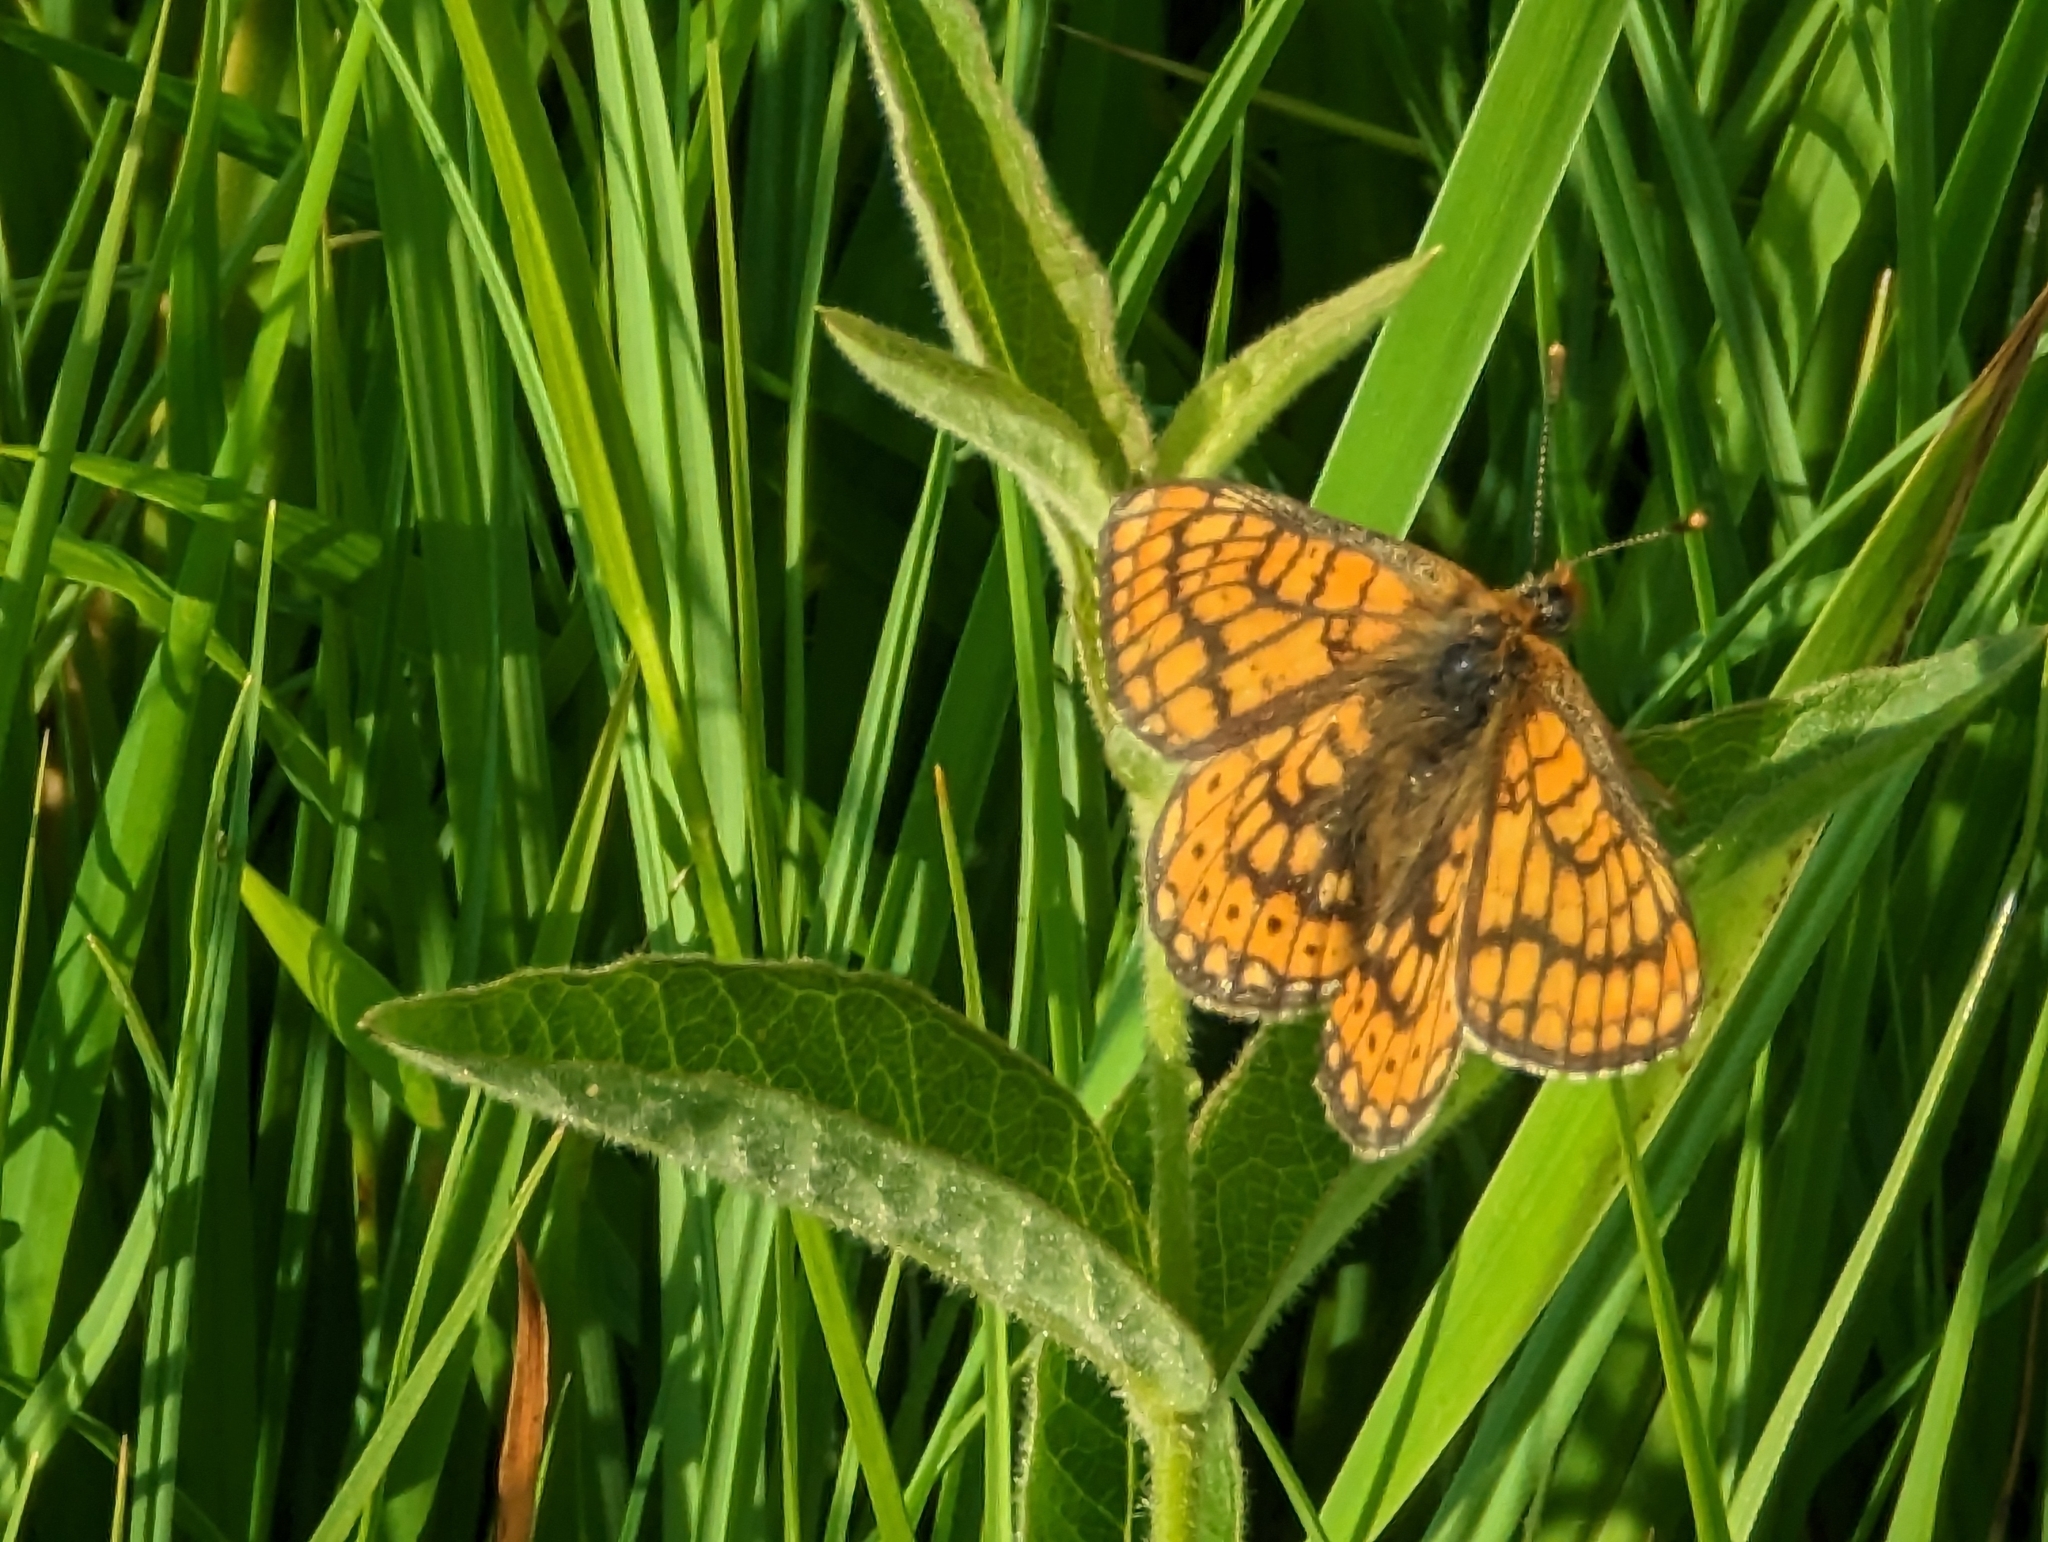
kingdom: Animalia
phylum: Arthropoda
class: Insecta
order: Lepidoptera
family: Nymphalidae
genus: Euphydryas
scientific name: Euphydryas aurinia
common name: Marsh fritillary
